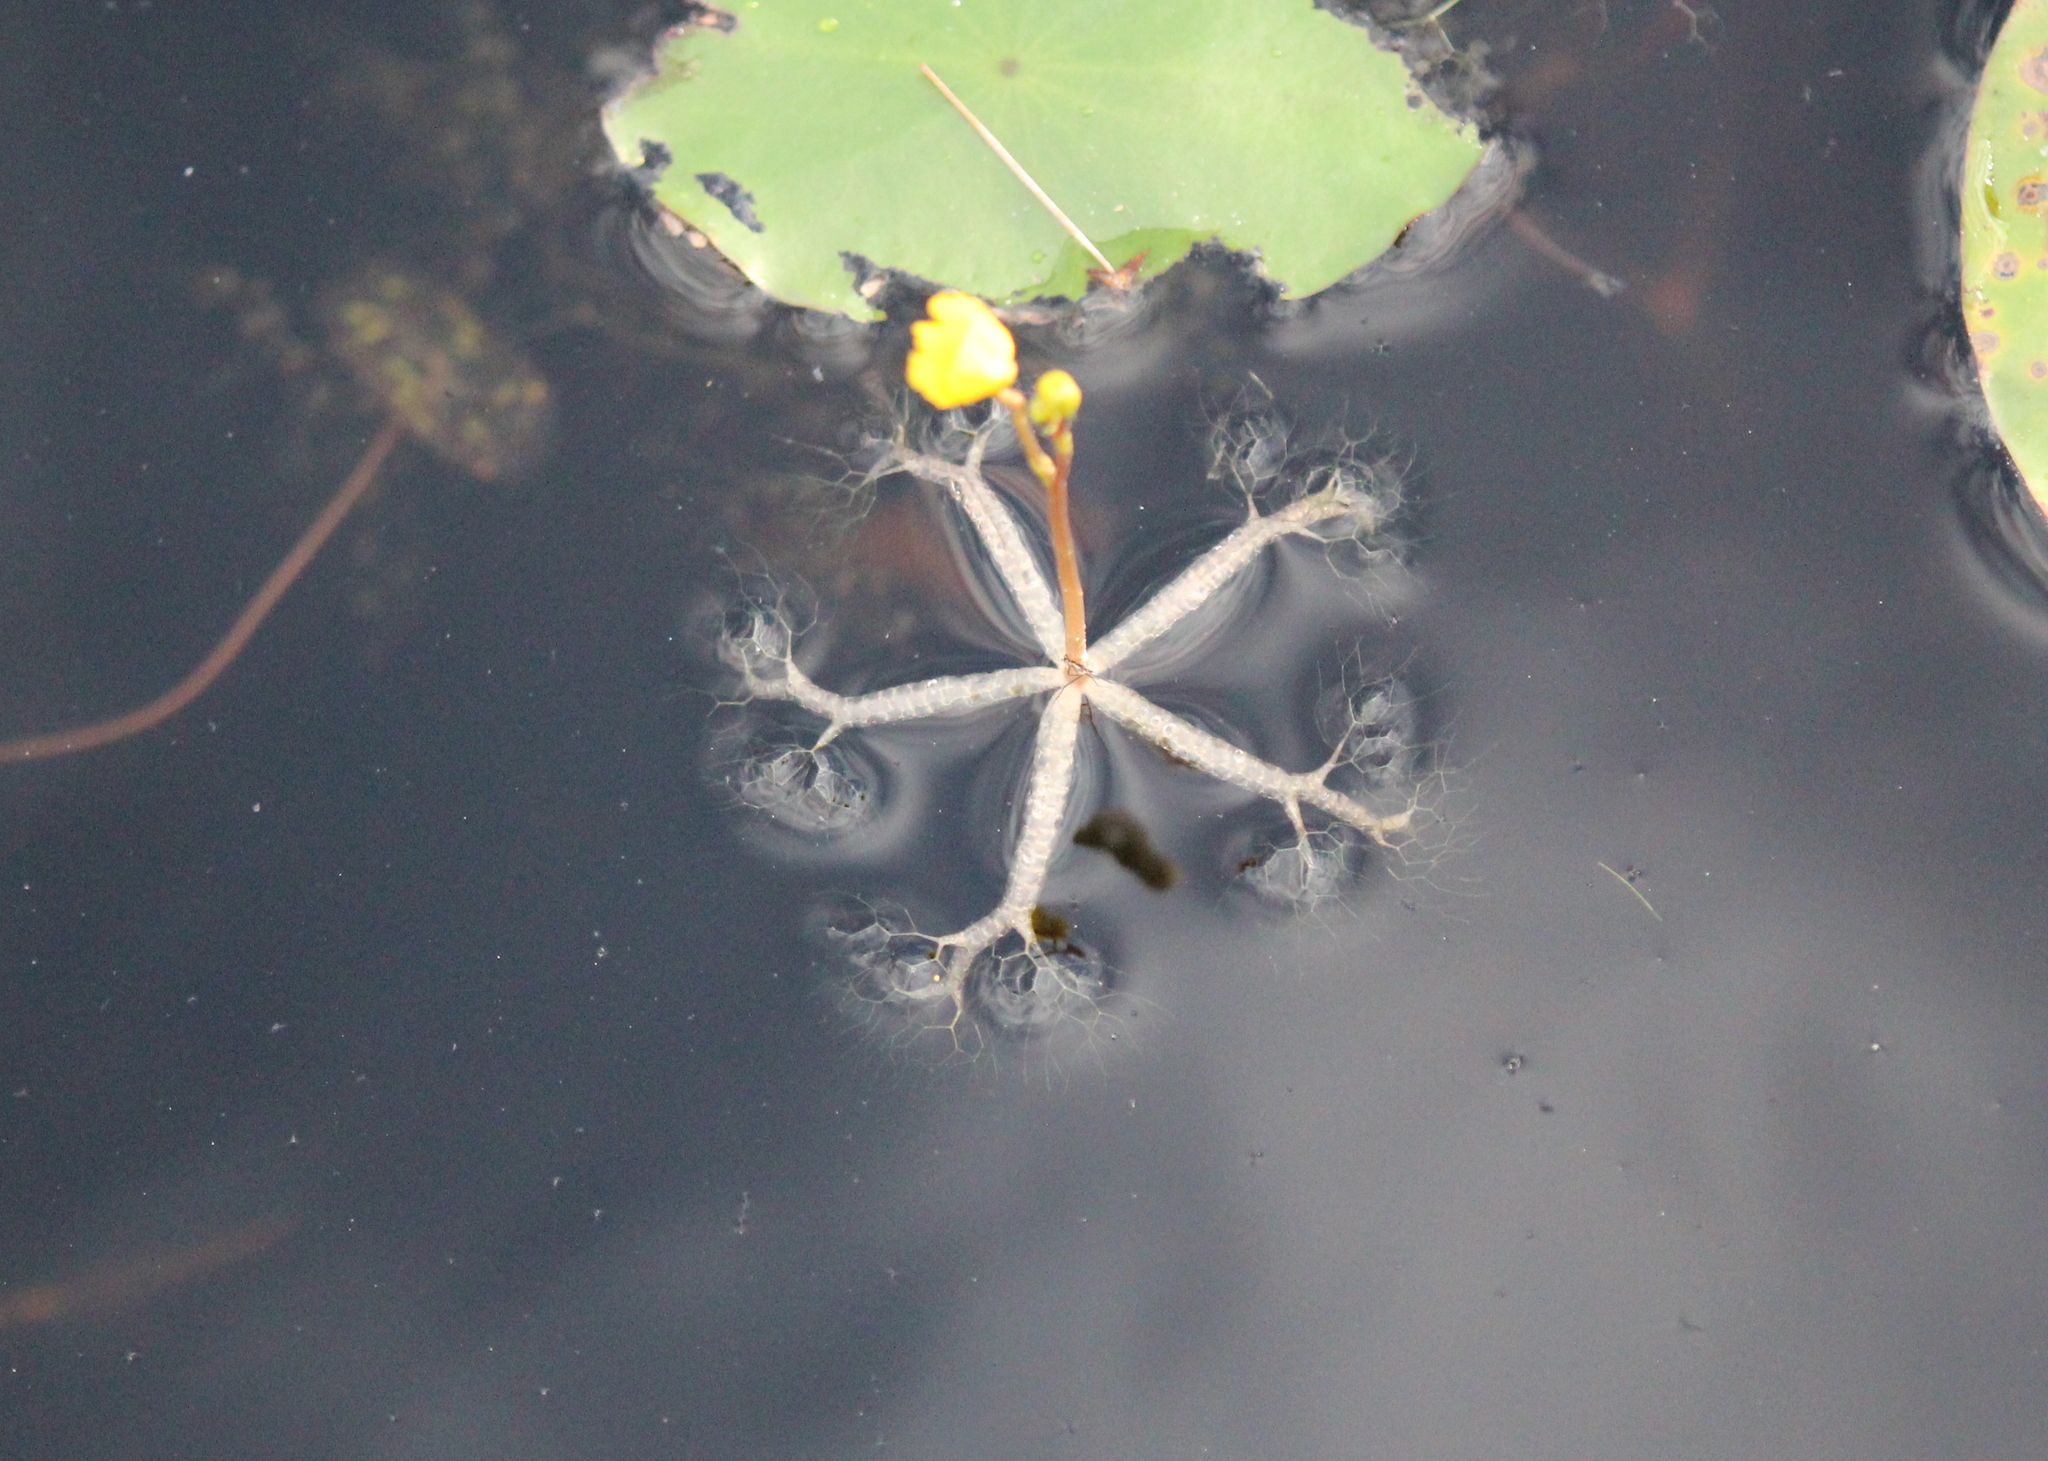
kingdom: Plantae
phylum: Tracheophyta
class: Magnoliopsida
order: Lamiales
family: Lentibulariaceae
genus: Utricularia
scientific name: Utricularia radiata
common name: Floating bladderwort
